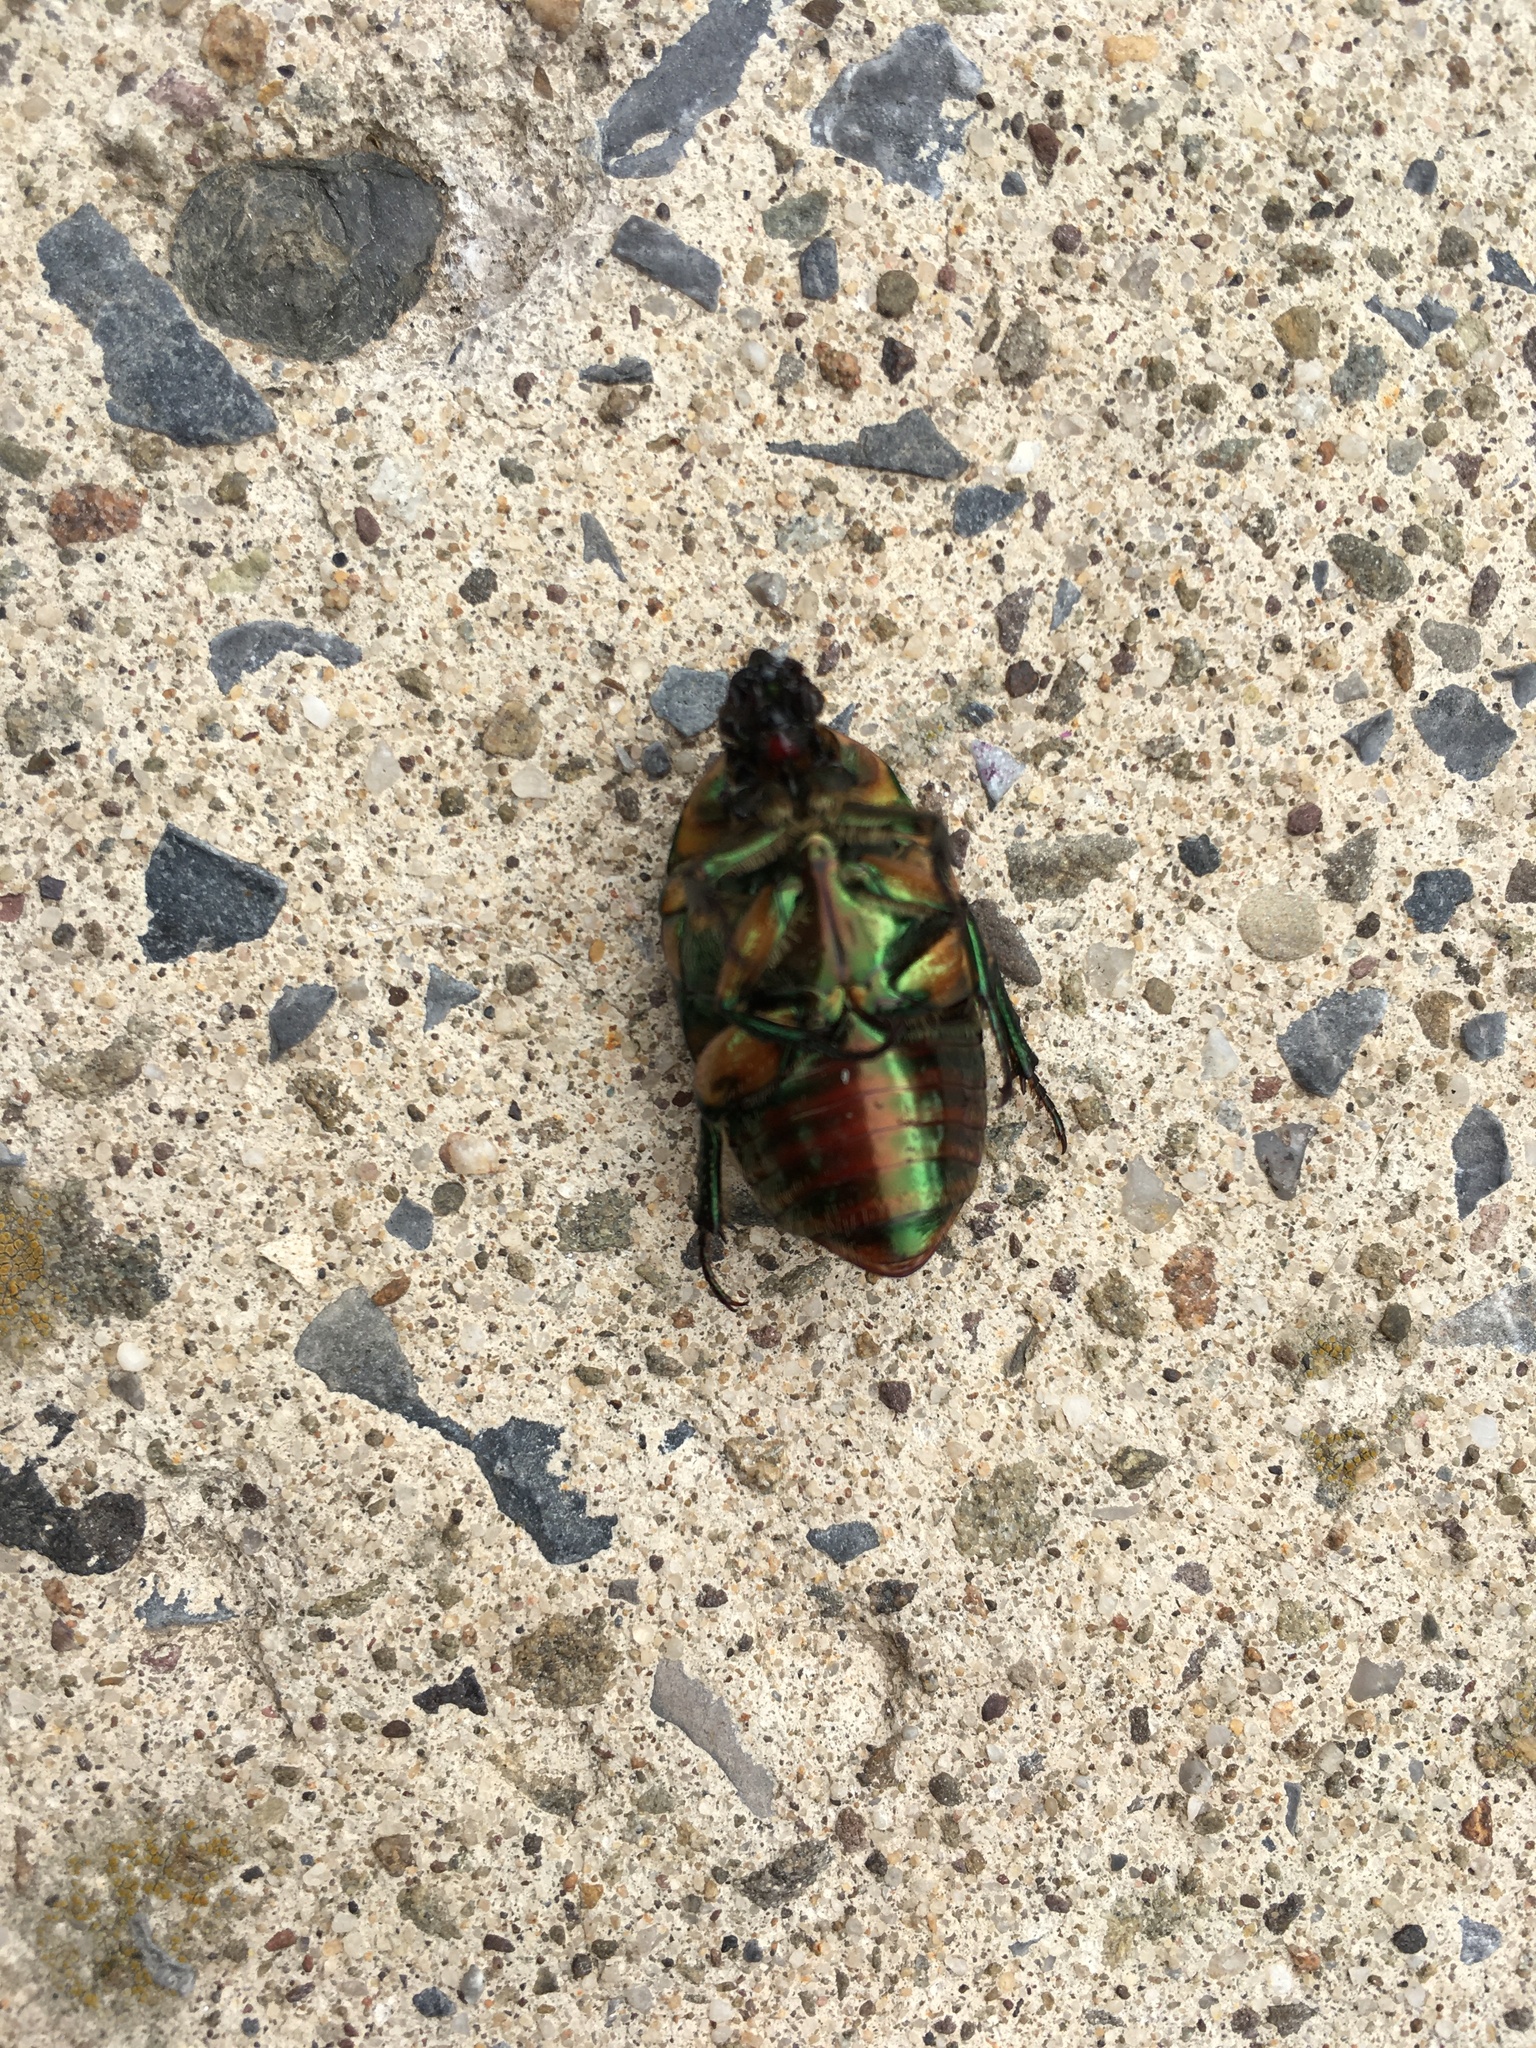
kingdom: Animalia
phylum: Arthropoda
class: Insecta
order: Coleoptera
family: Scarabaeidae
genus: Cotinis
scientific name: Cotinis nitida
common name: Common green june beetle
